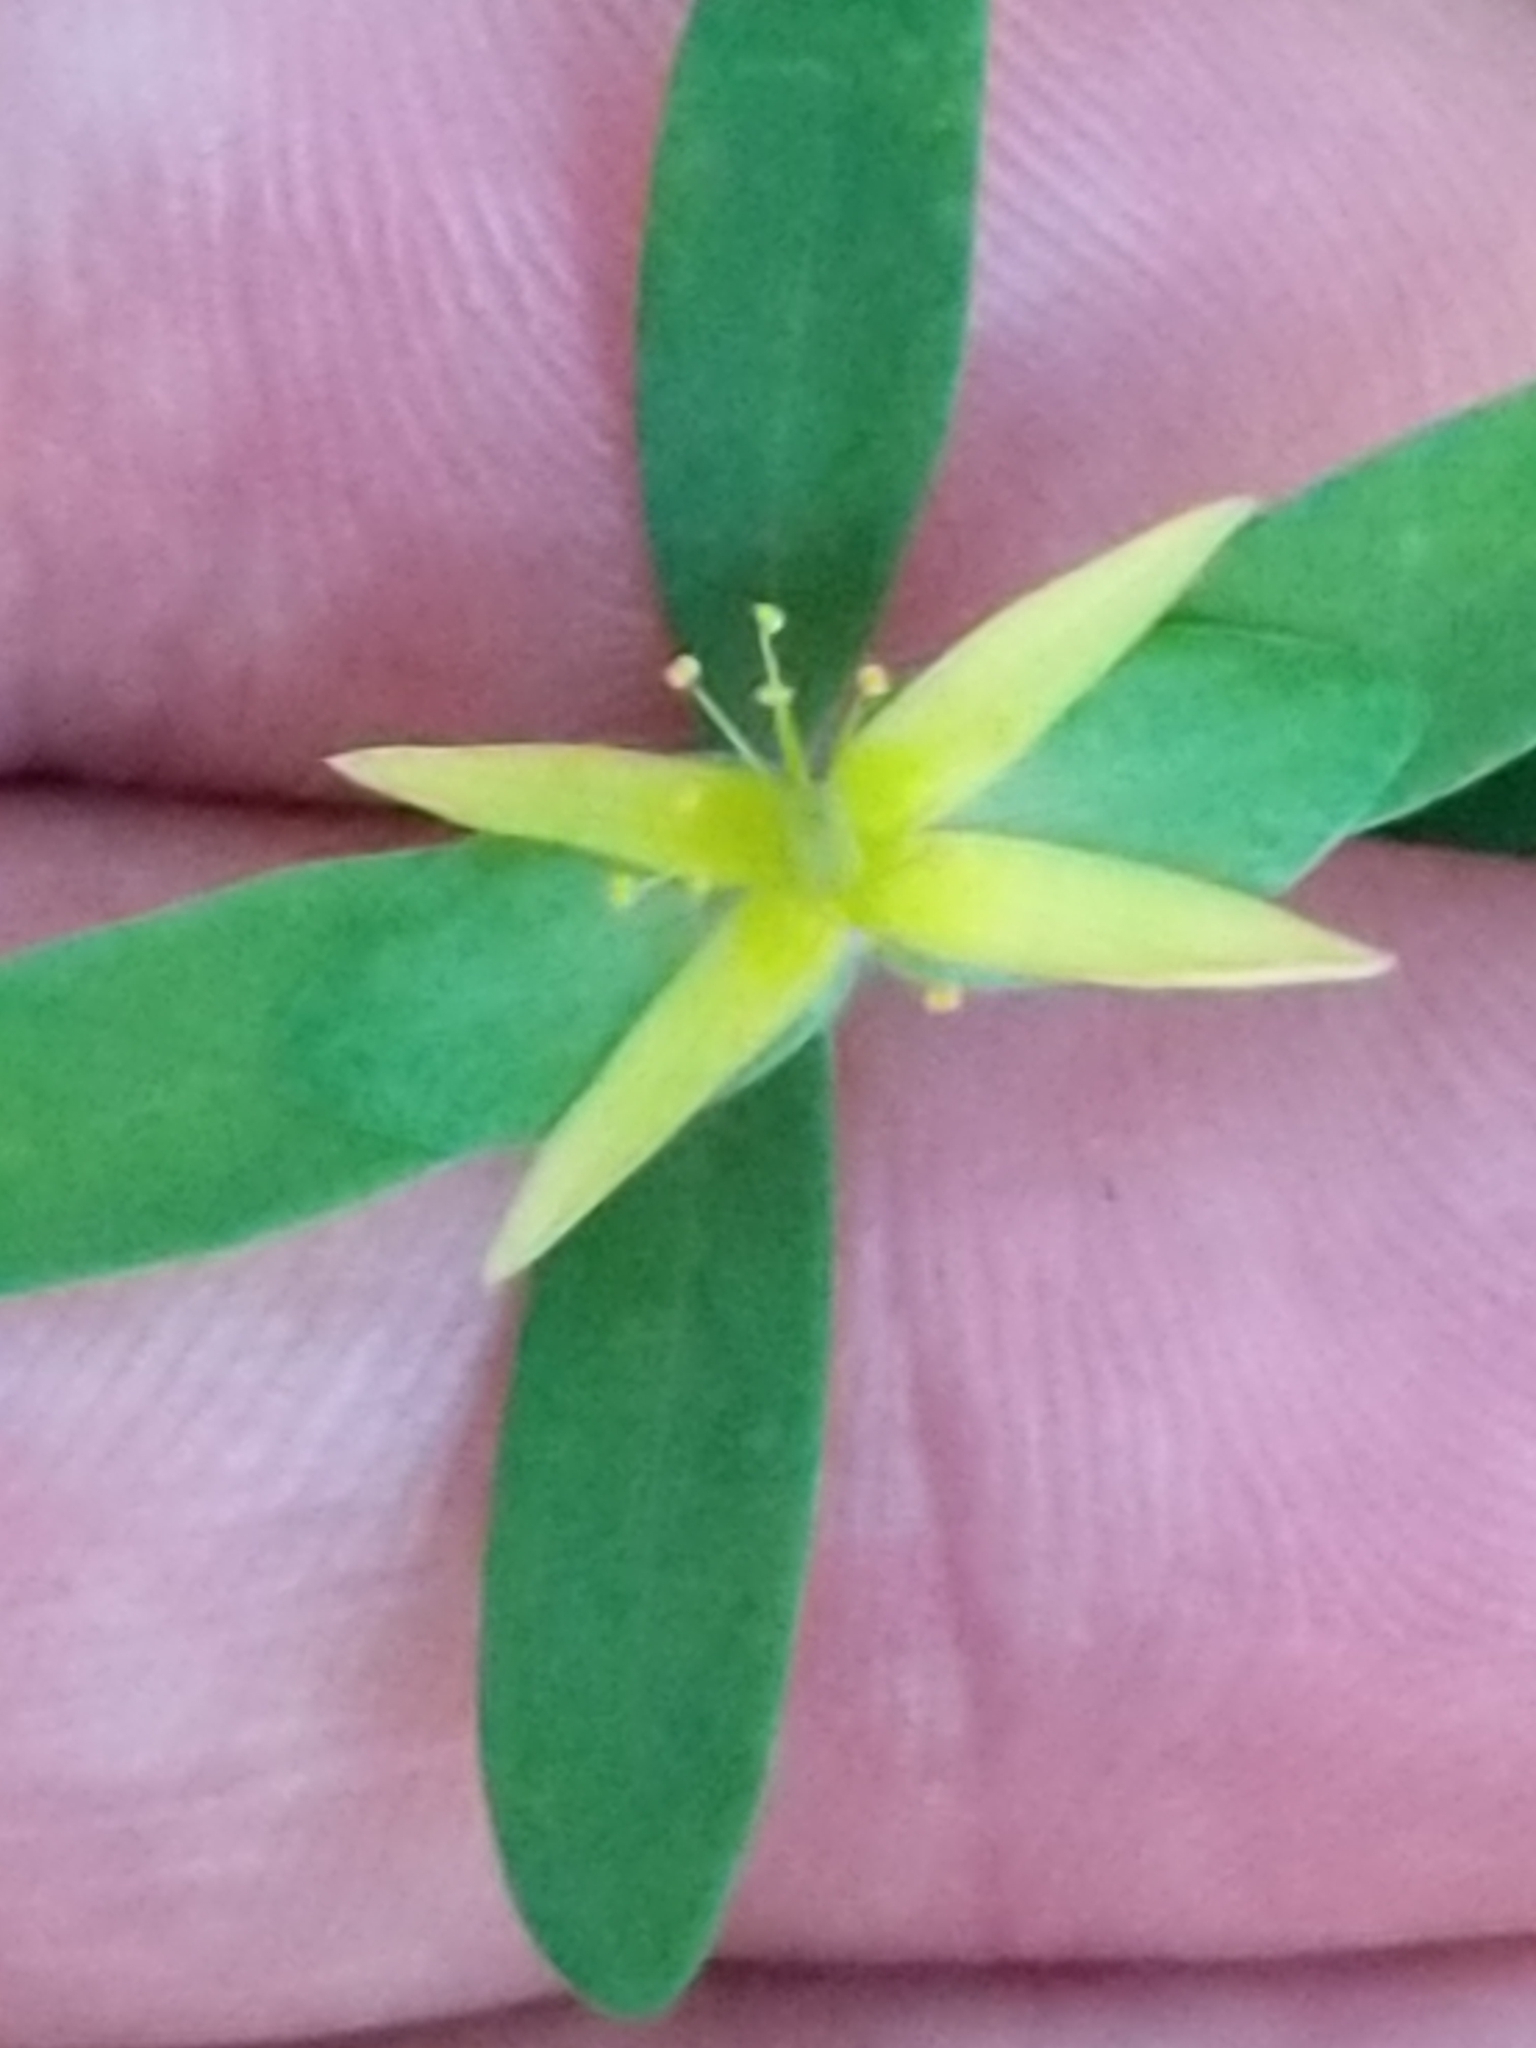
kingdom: Plantae
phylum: Tracheophyta
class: Magnoliopsida
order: Malpighiales
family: Hypericaceae
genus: Hypericum
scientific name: Hypericum hypericoides
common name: St. andrew's cross
